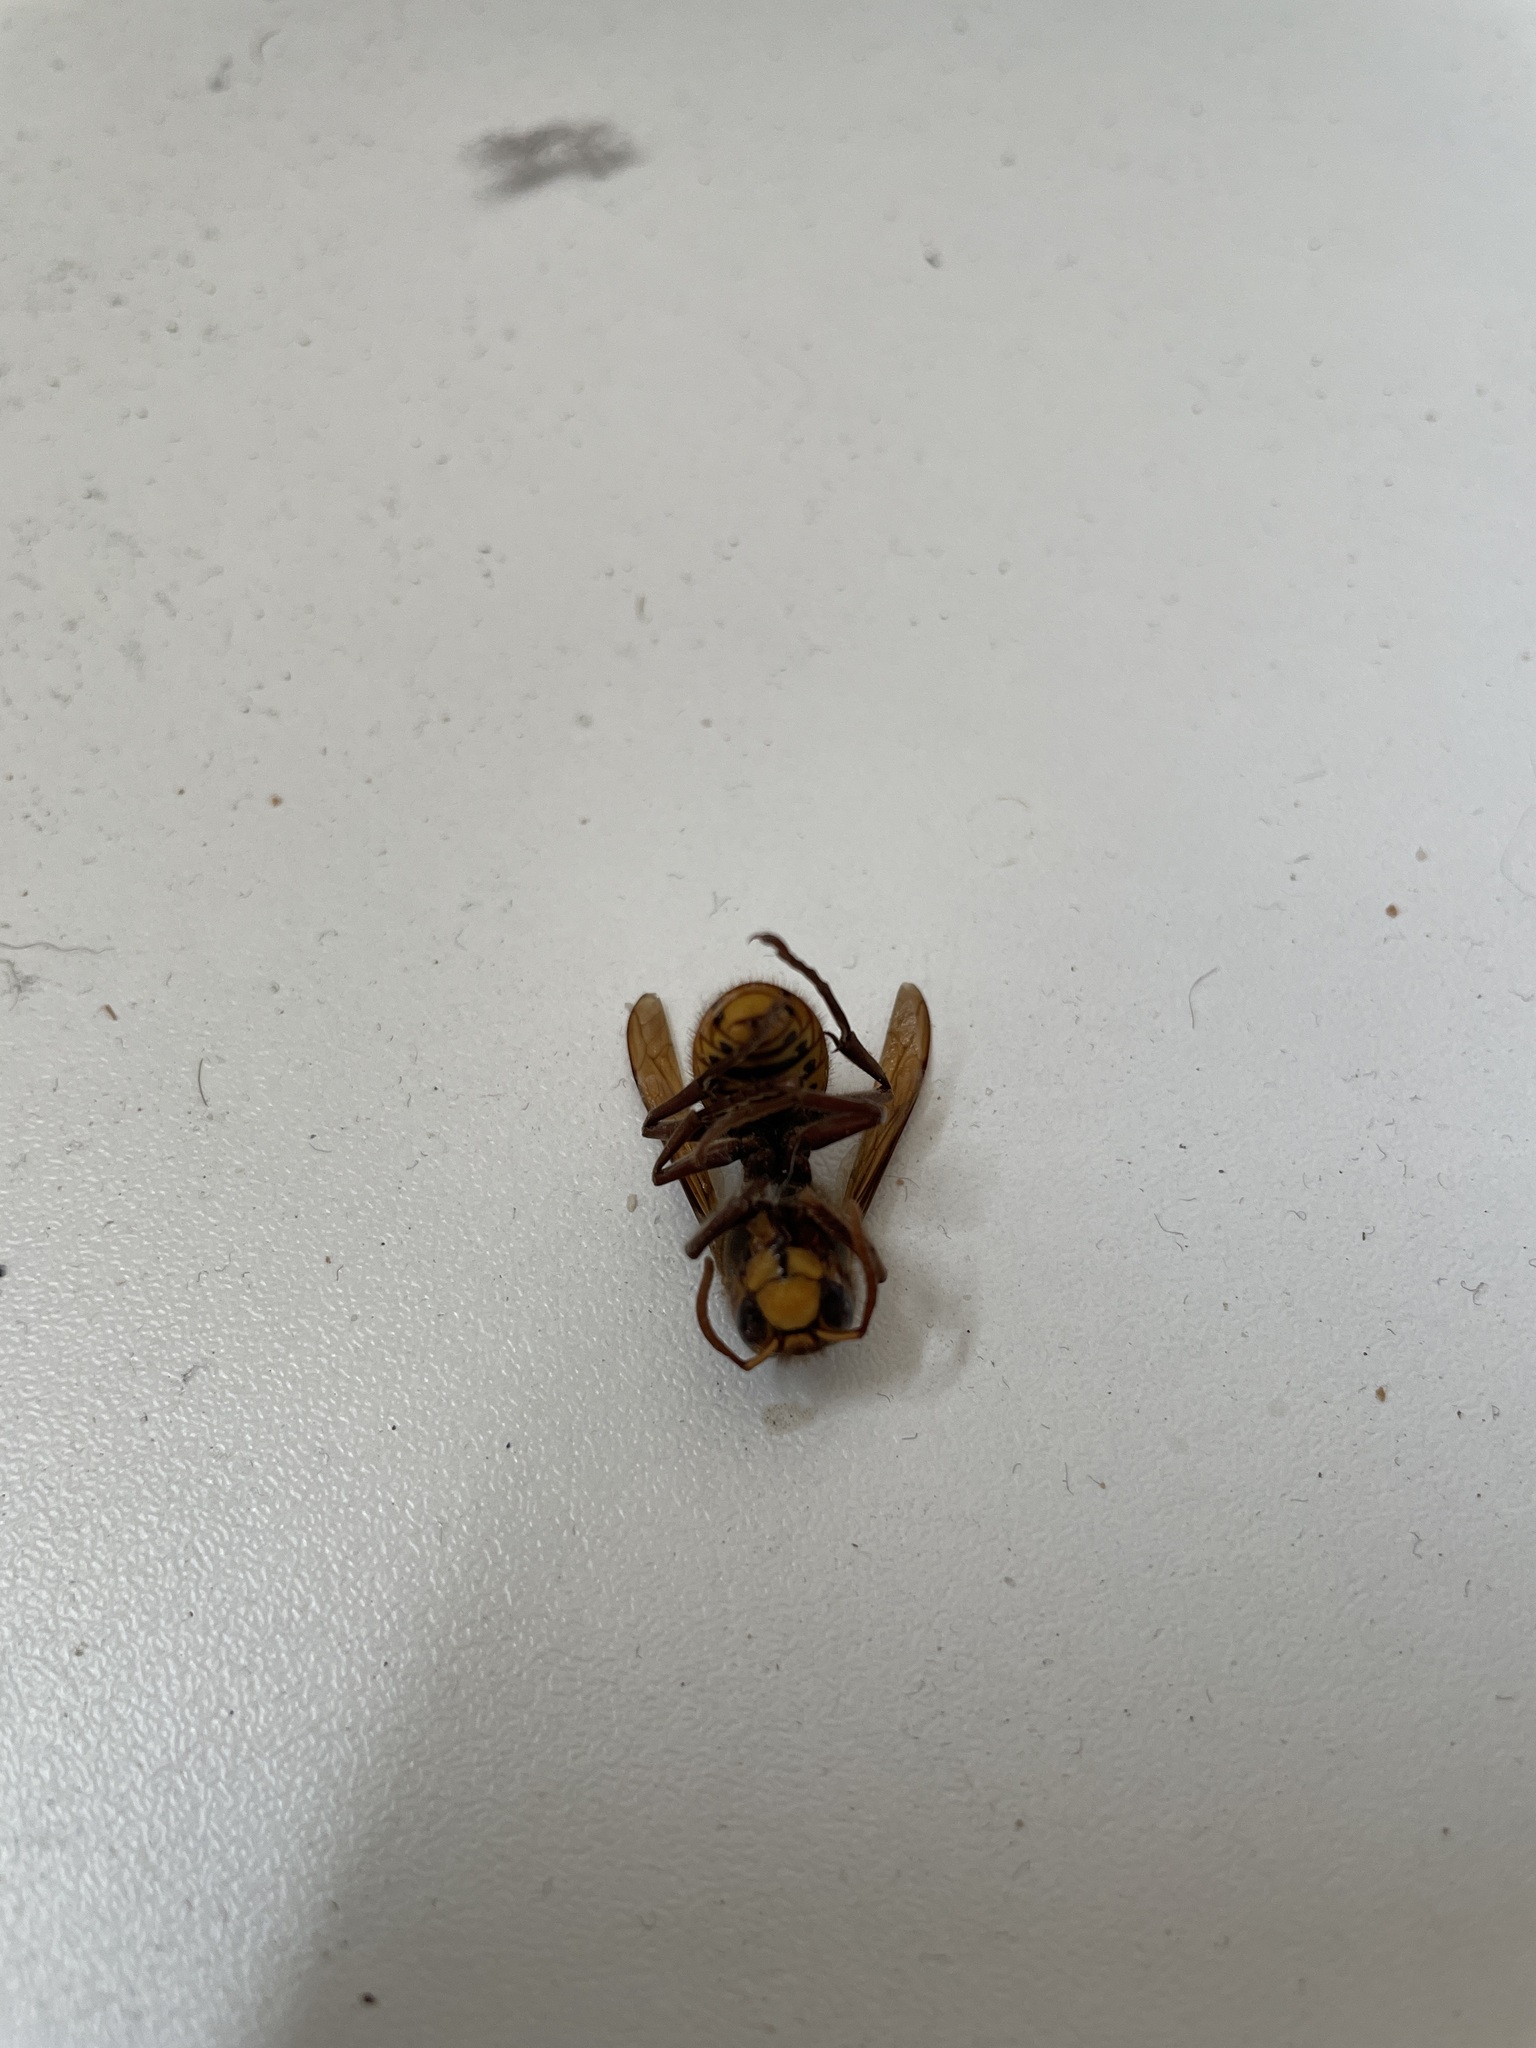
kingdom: Animalia
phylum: Arthropoda
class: Insecta
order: Hymenoptera
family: Vespidae
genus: Vespa
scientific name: Vespa crabro
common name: Hornet
